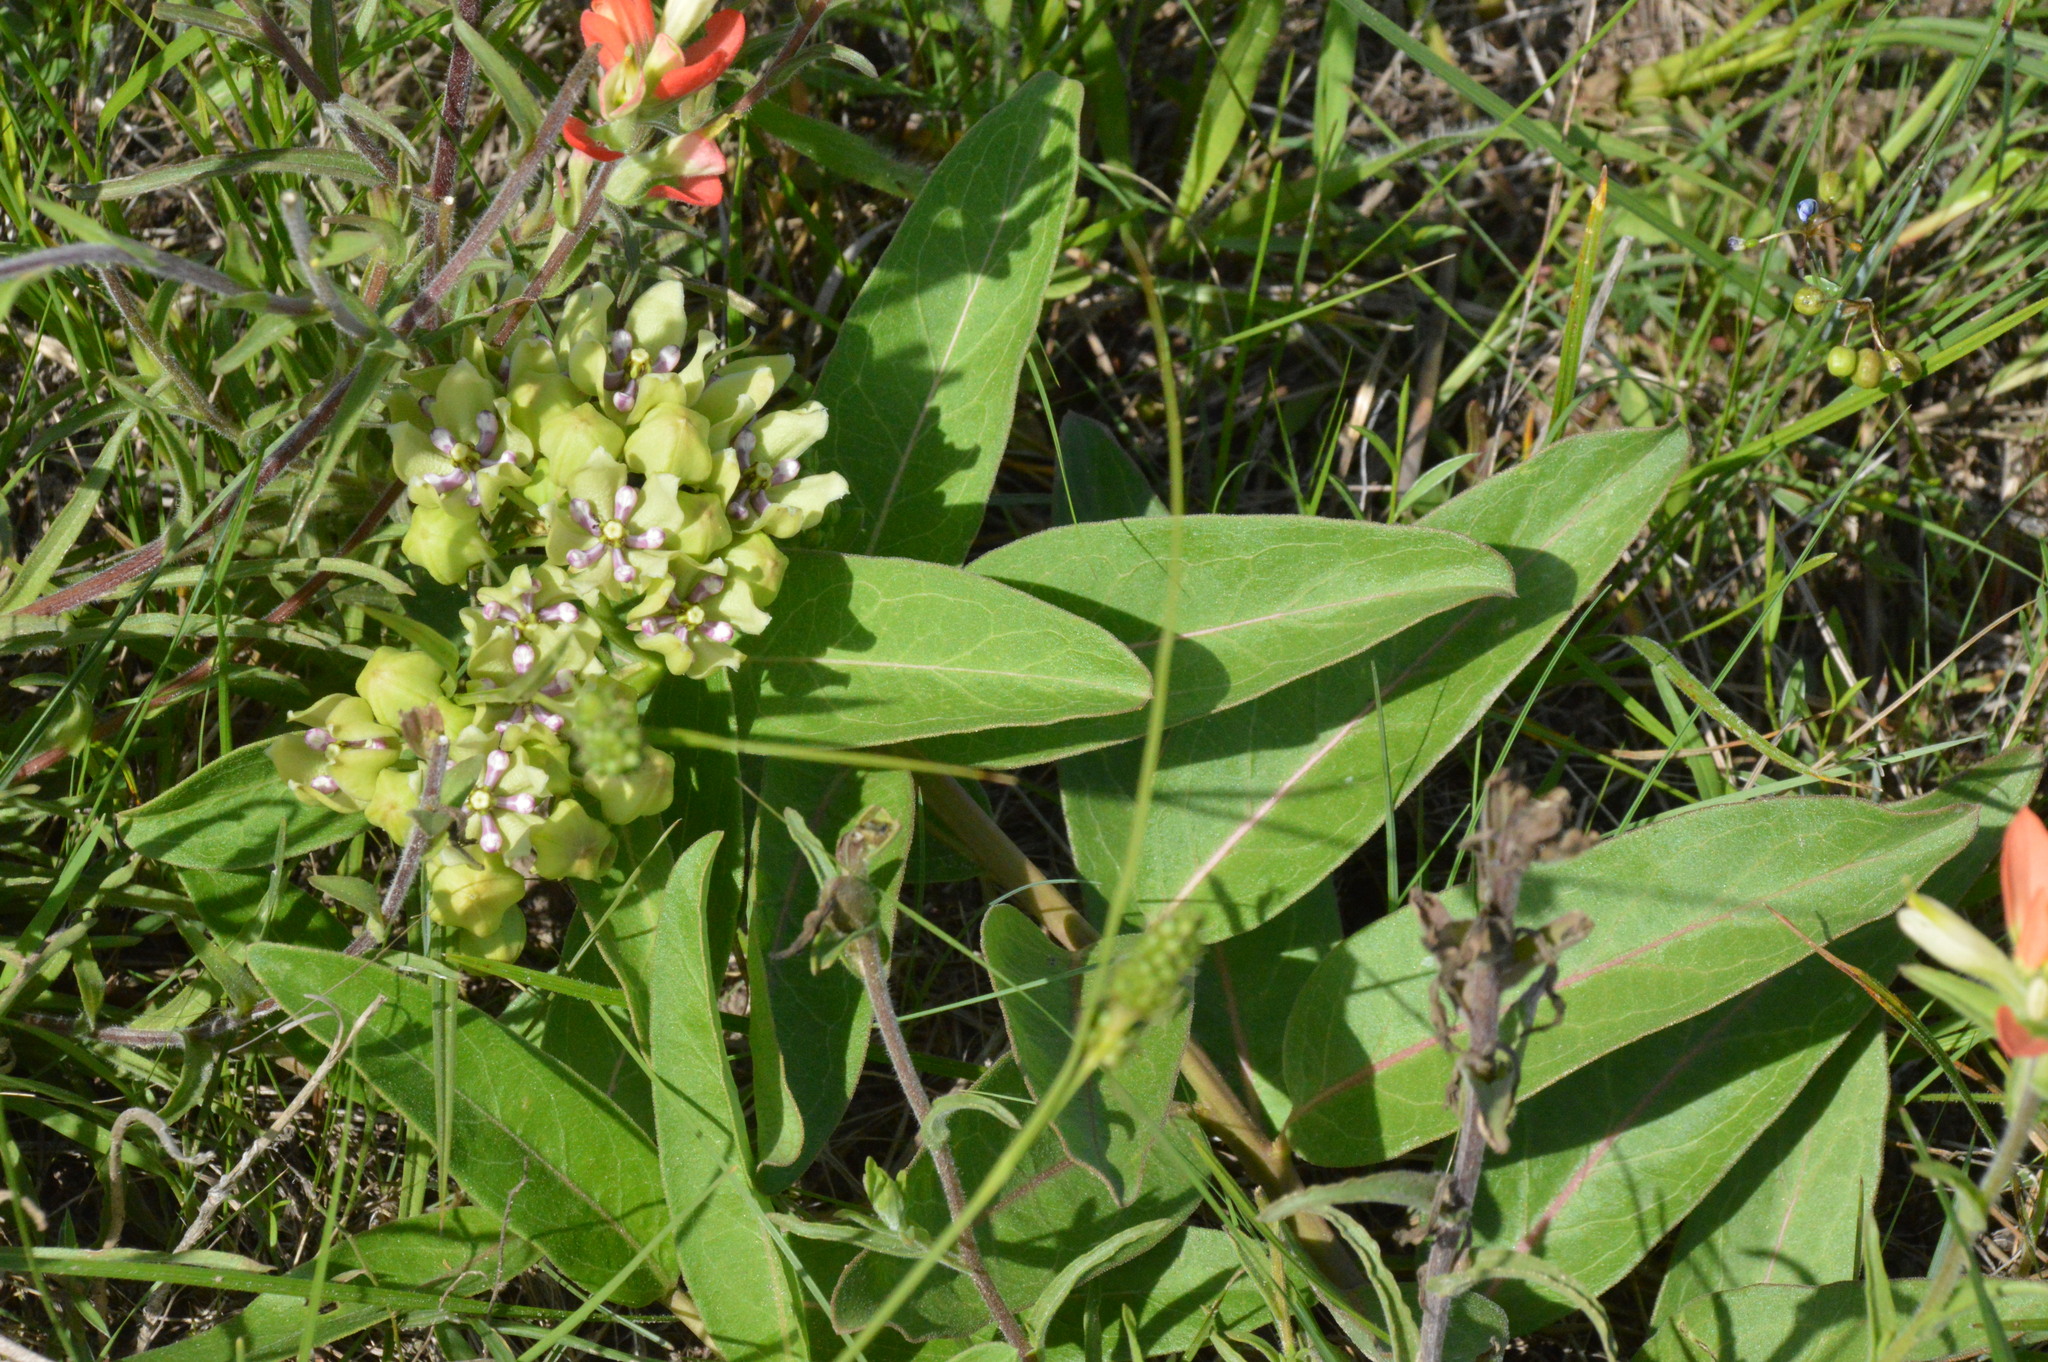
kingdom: Plantae
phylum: Tracheophyta
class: Magnoliopsida
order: Gentianales
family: Apocynaceae
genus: Asclepias
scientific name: Asclepias viridis
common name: Antelope-horns
